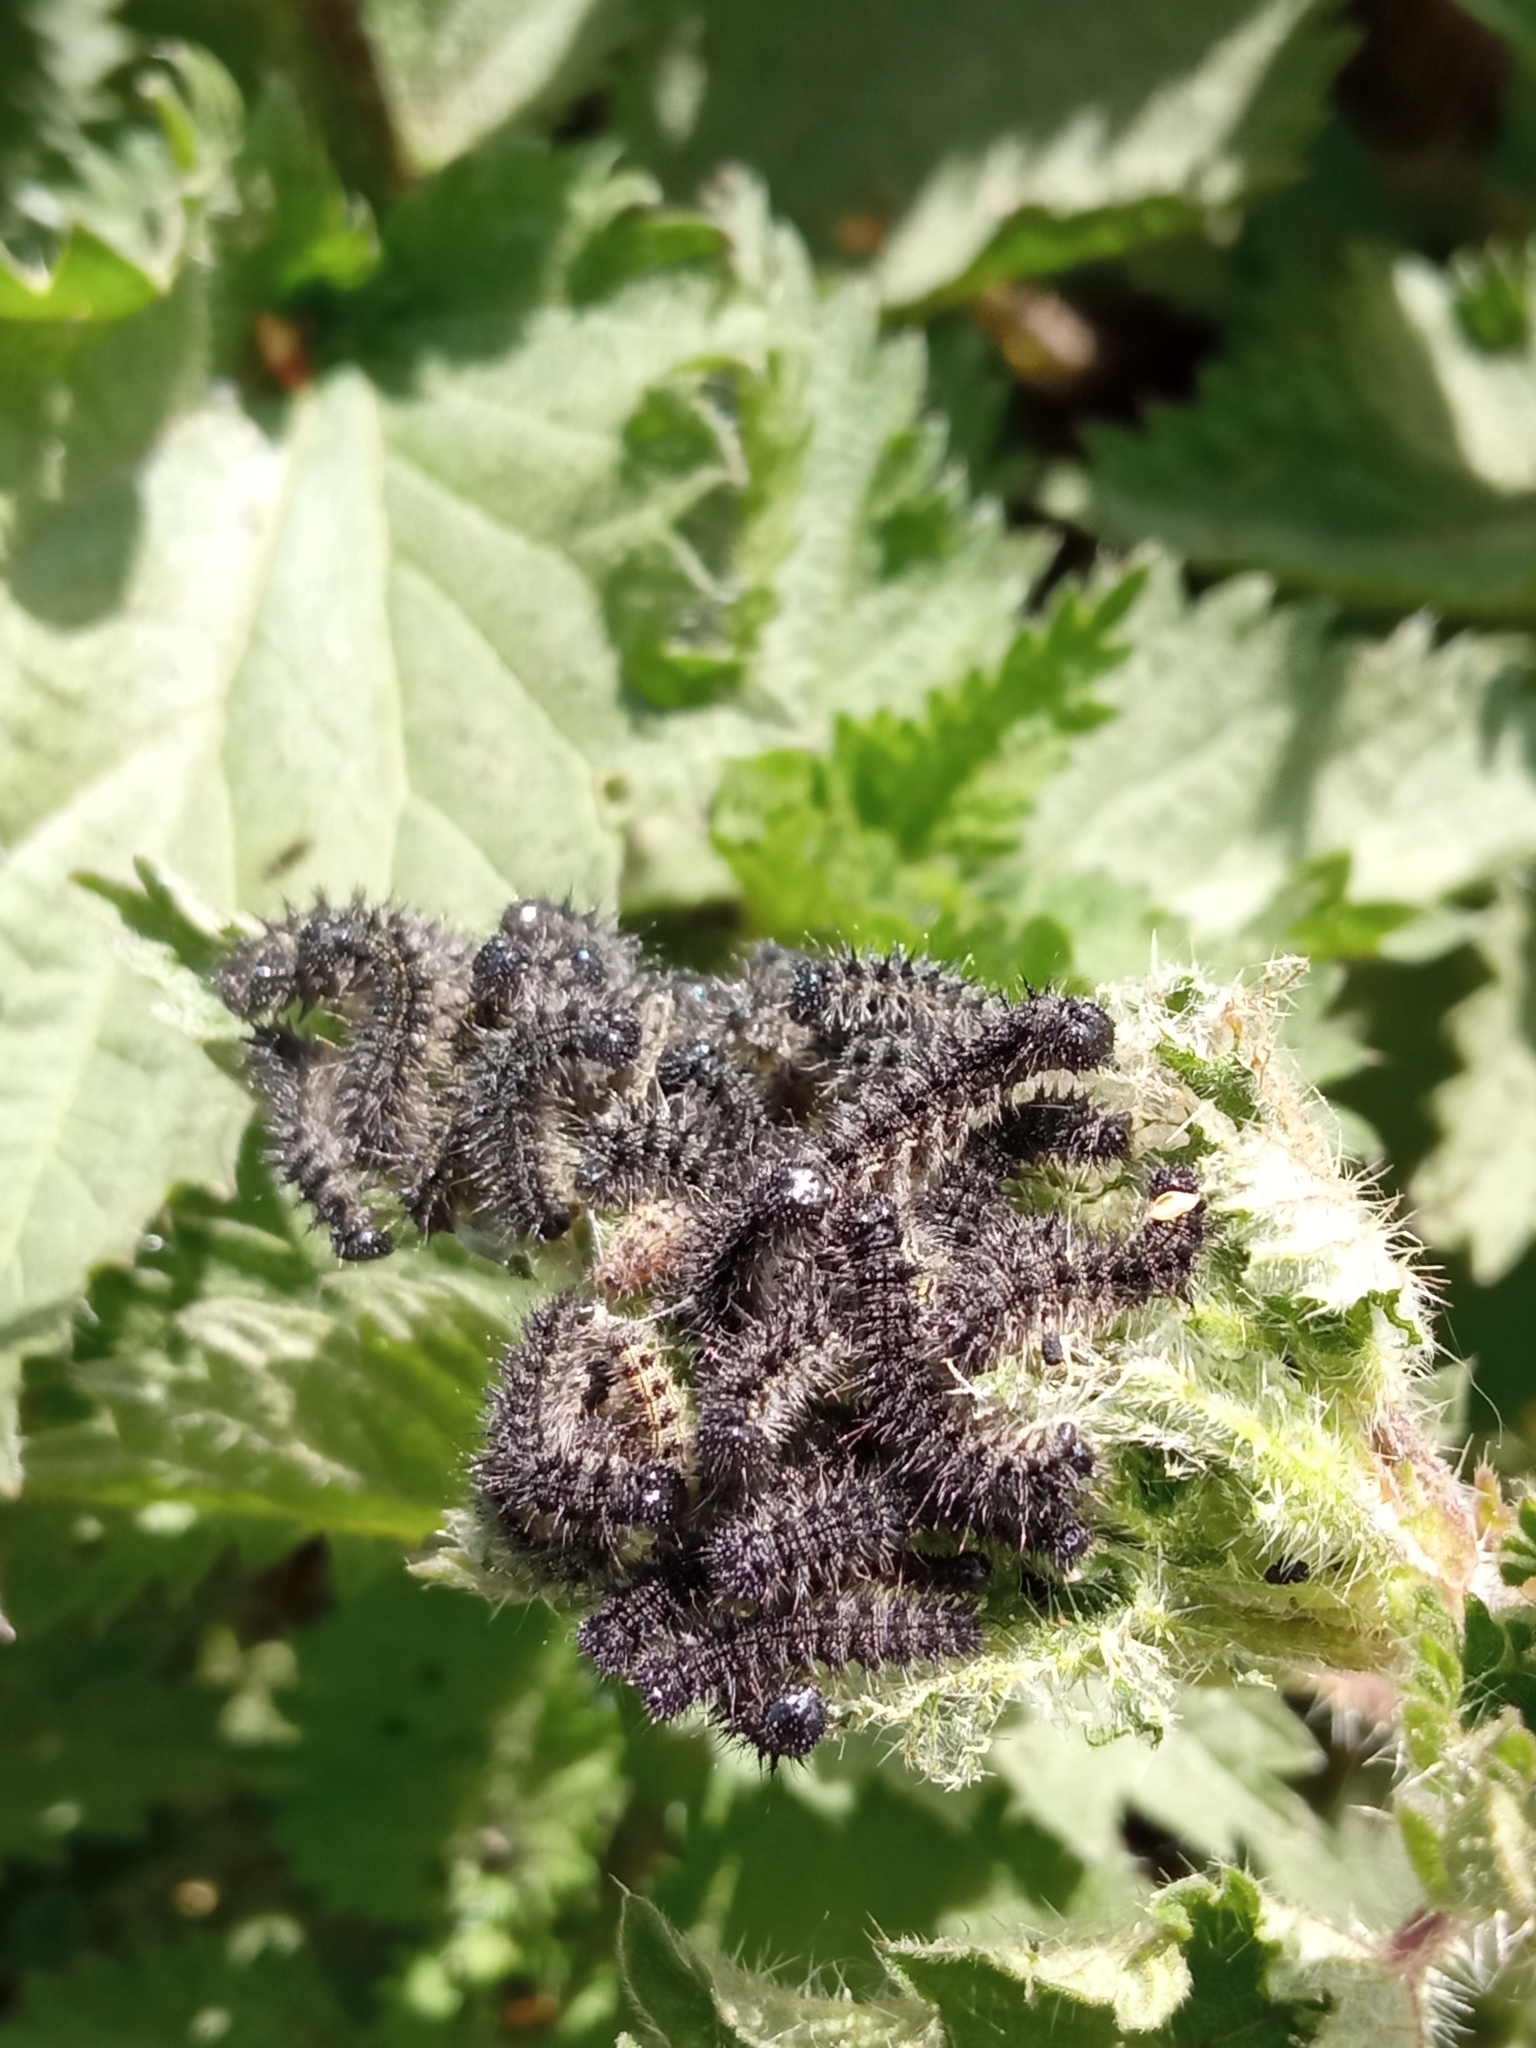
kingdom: Animalia
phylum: Arthropoda
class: Insecta
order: Lepidoptera
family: Nymphalidae
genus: Aglais
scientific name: Aglais urticae
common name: Small tortoiseshell
